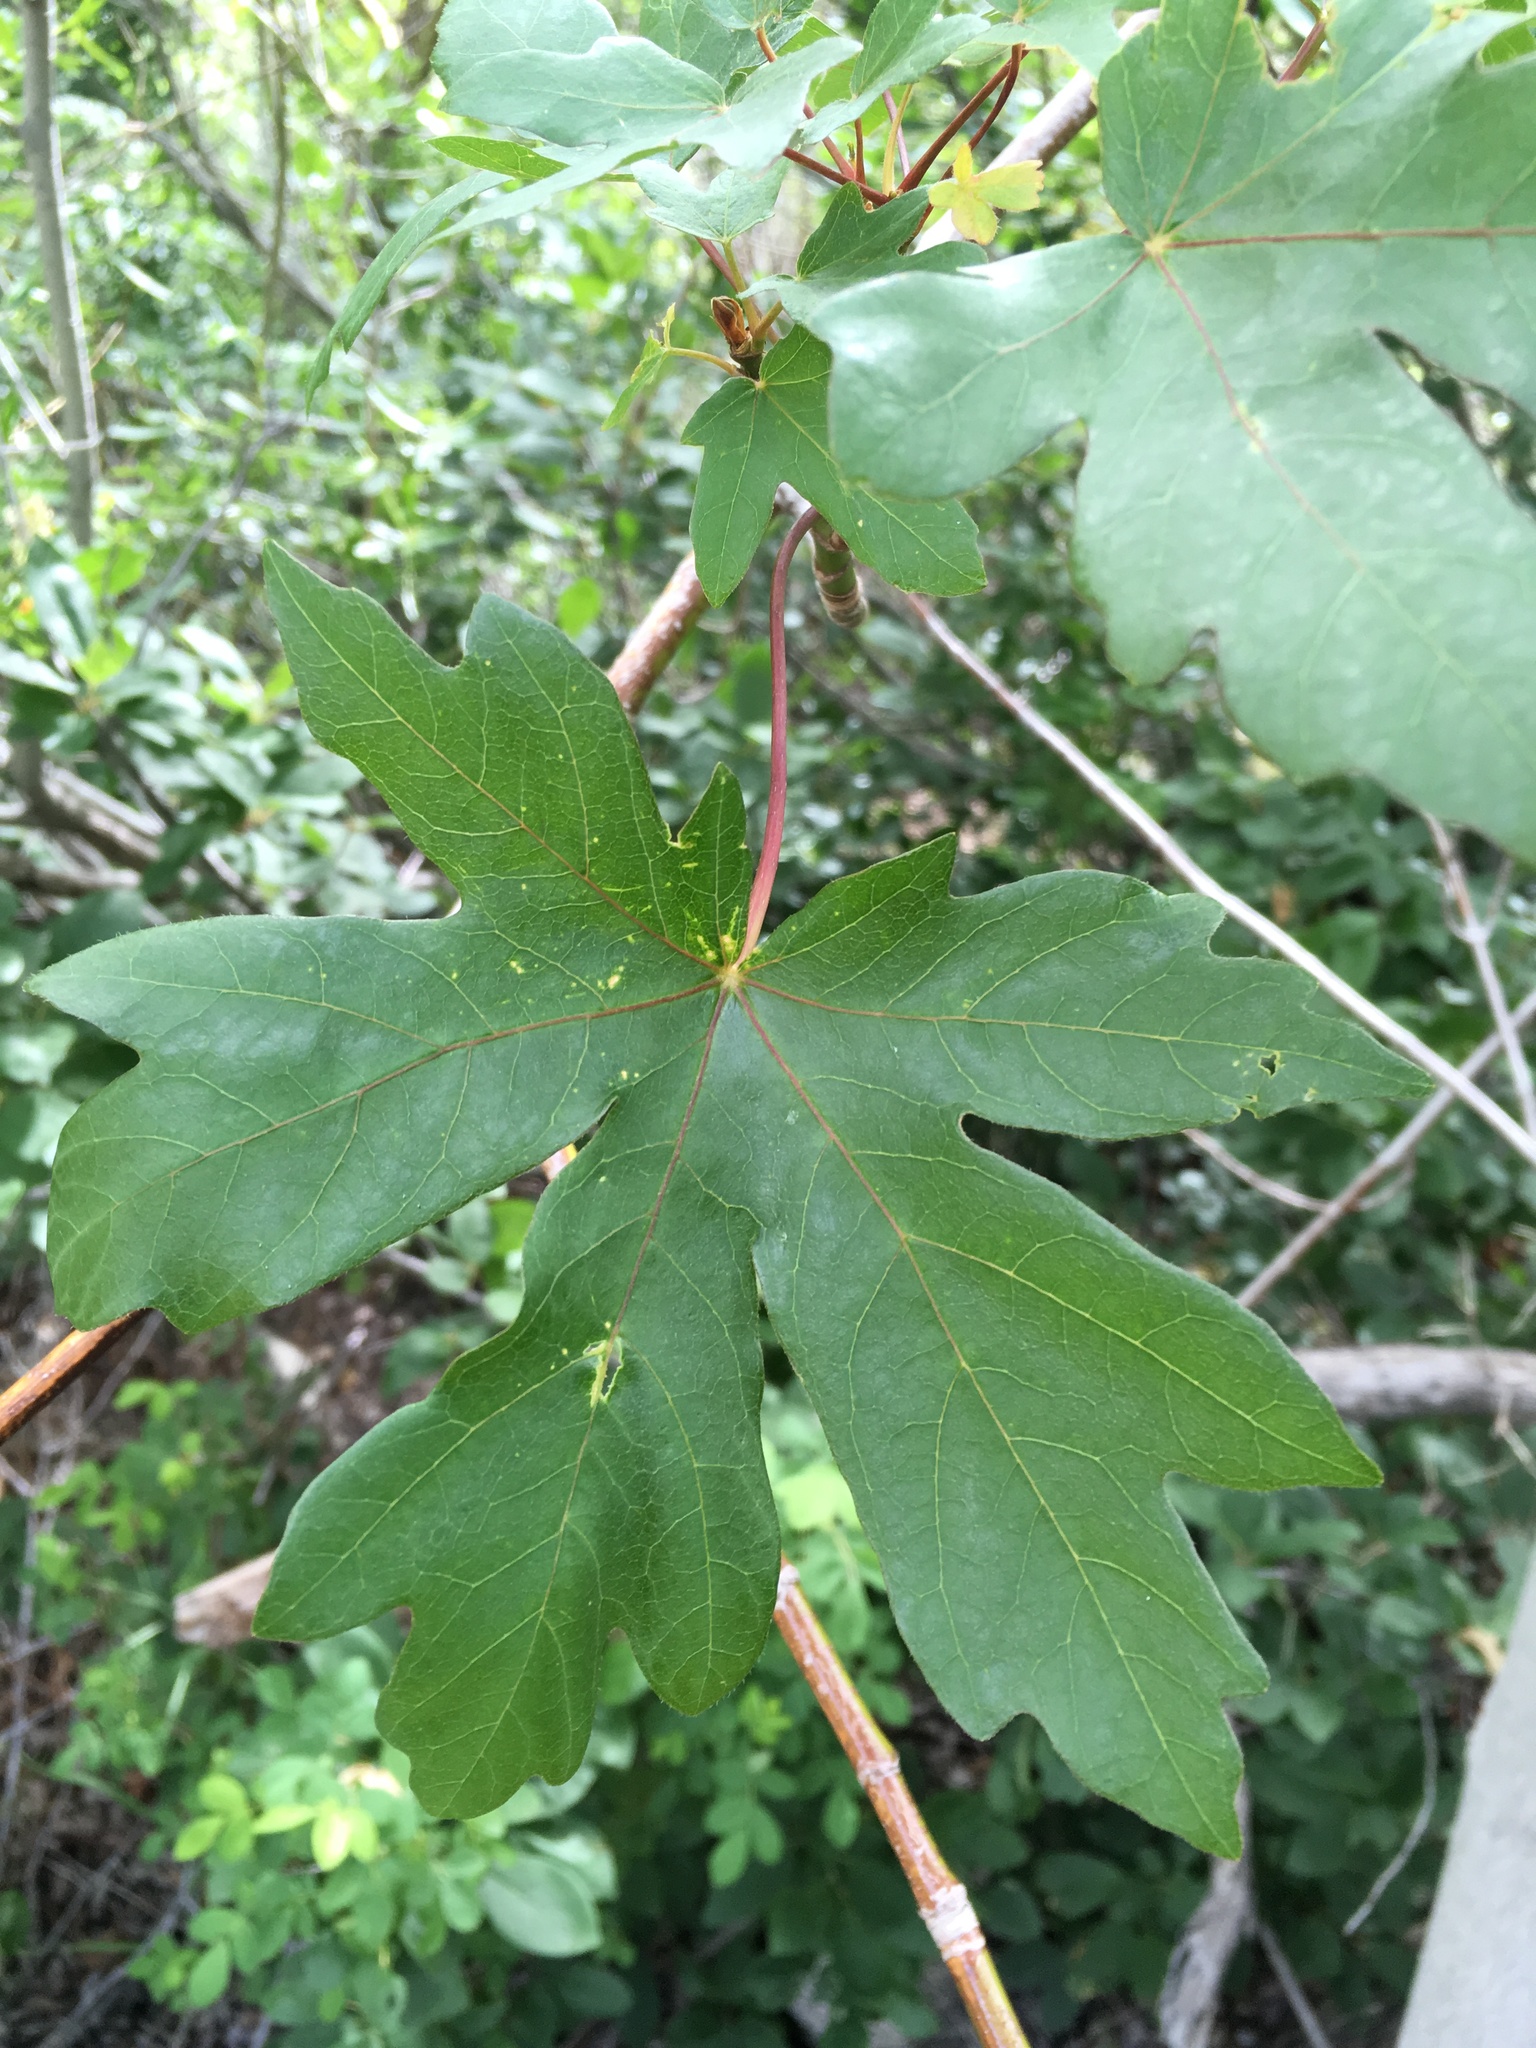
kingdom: Plantae
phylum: Tracheophyta
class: Magnoliopsida
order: Sapindales
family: Sapindaceae
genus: Acer
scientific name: Acer macrophyllum
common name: Oregon maple
